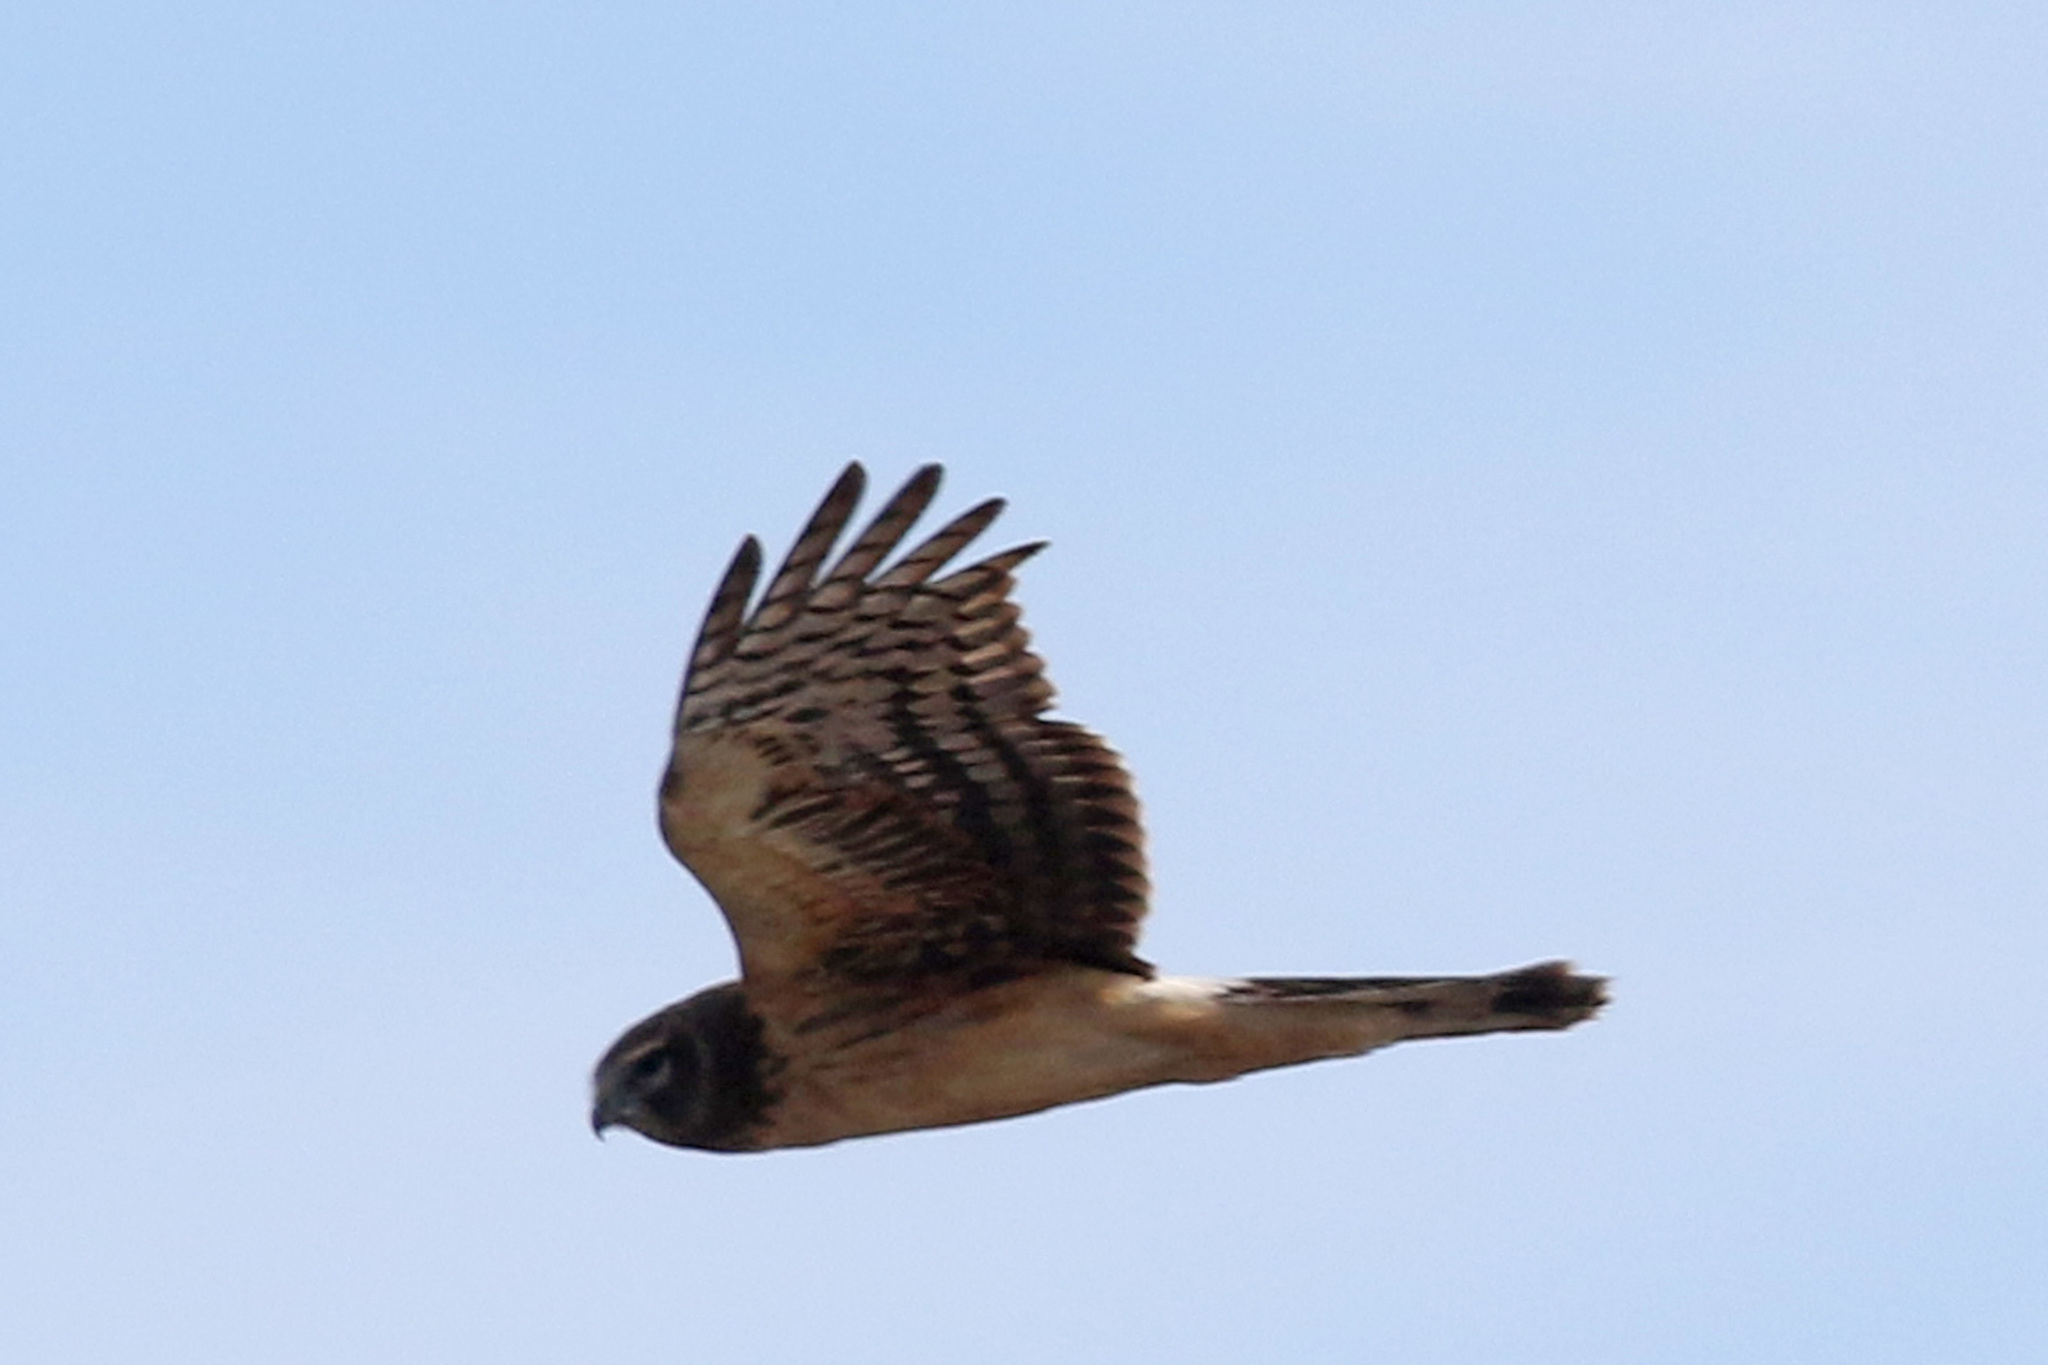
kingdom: Animalia
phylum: Chordata
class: Aves
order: Accipitriformes
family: Accipitridae
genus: Circus
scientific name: Circus cyaneus
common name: Hen harrier
